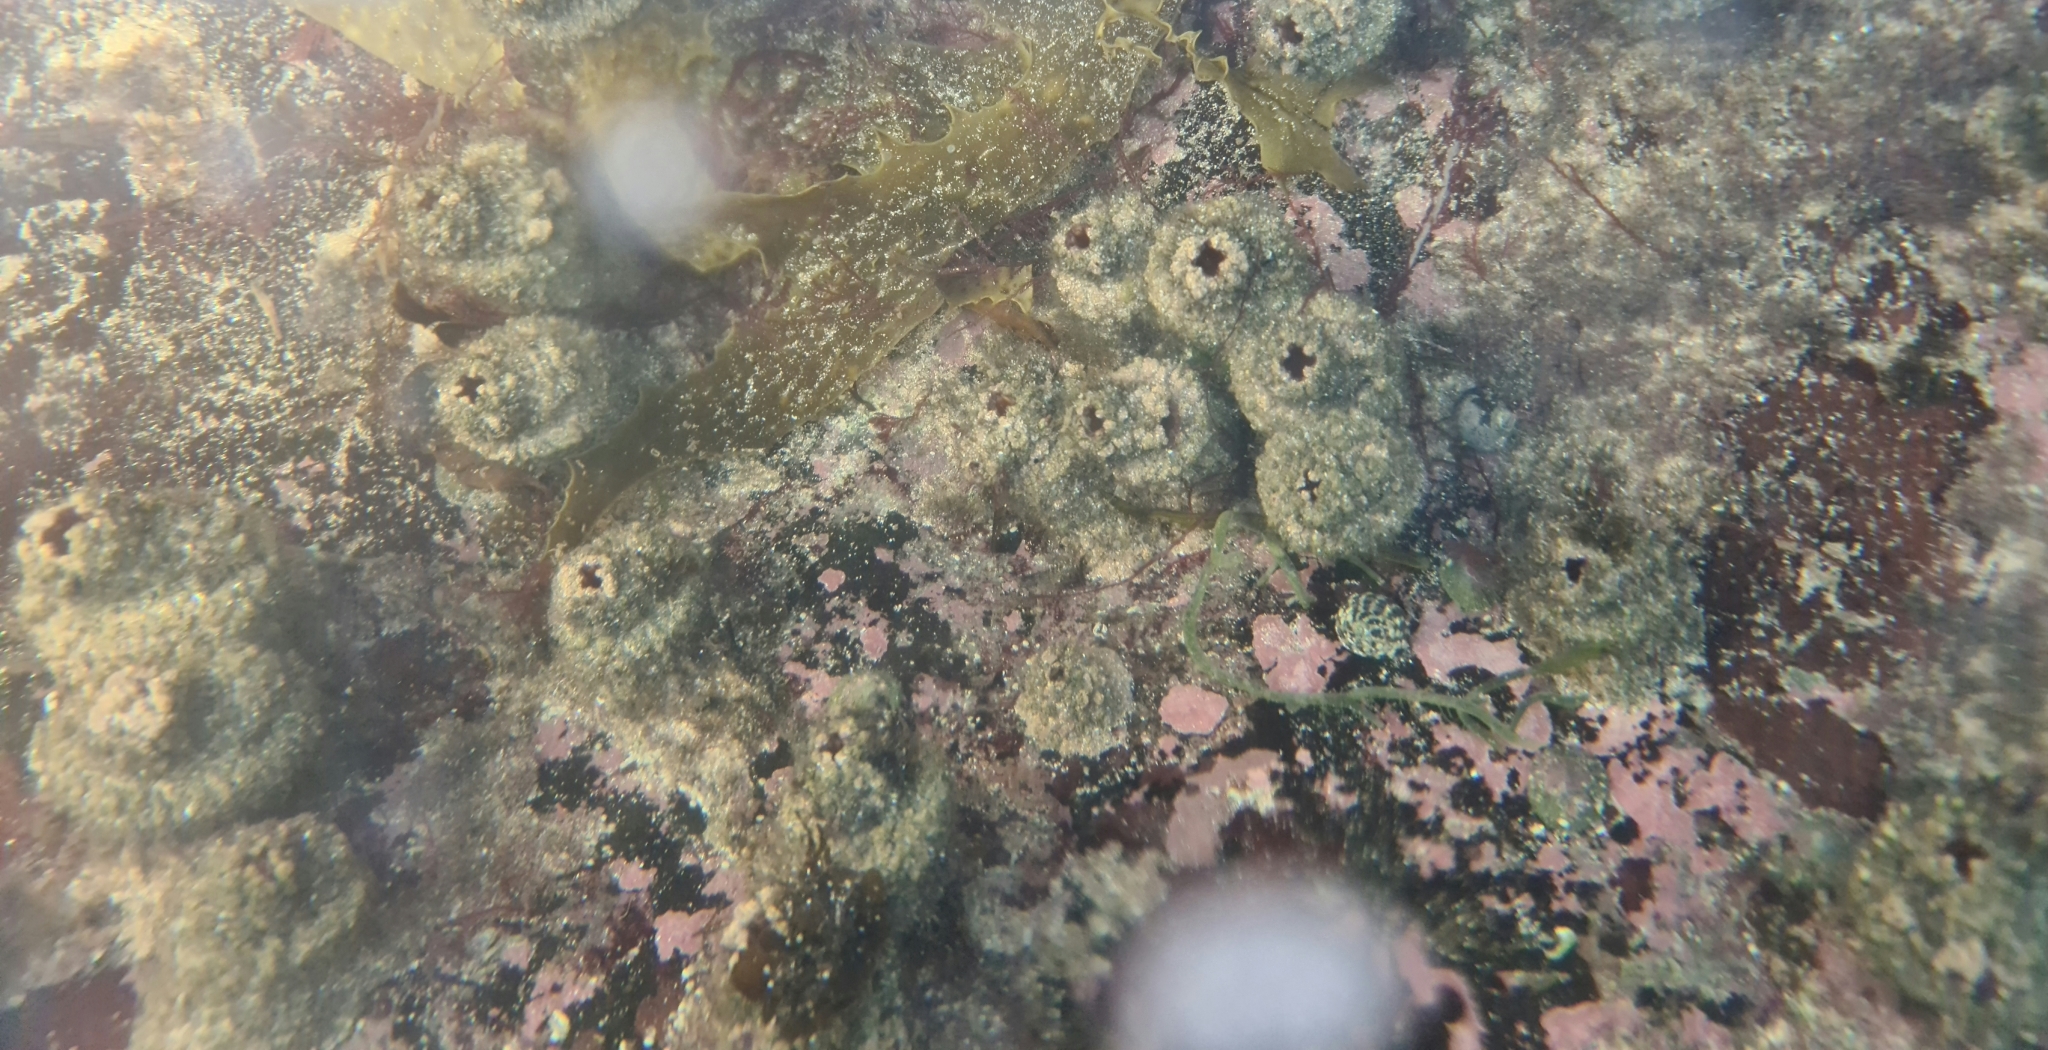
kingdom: Animalia
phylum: Chordata
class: Ascidiacea
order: Stolidobranchia
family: Pyuridae
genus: Pyura
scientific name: Pyura praeputialis
